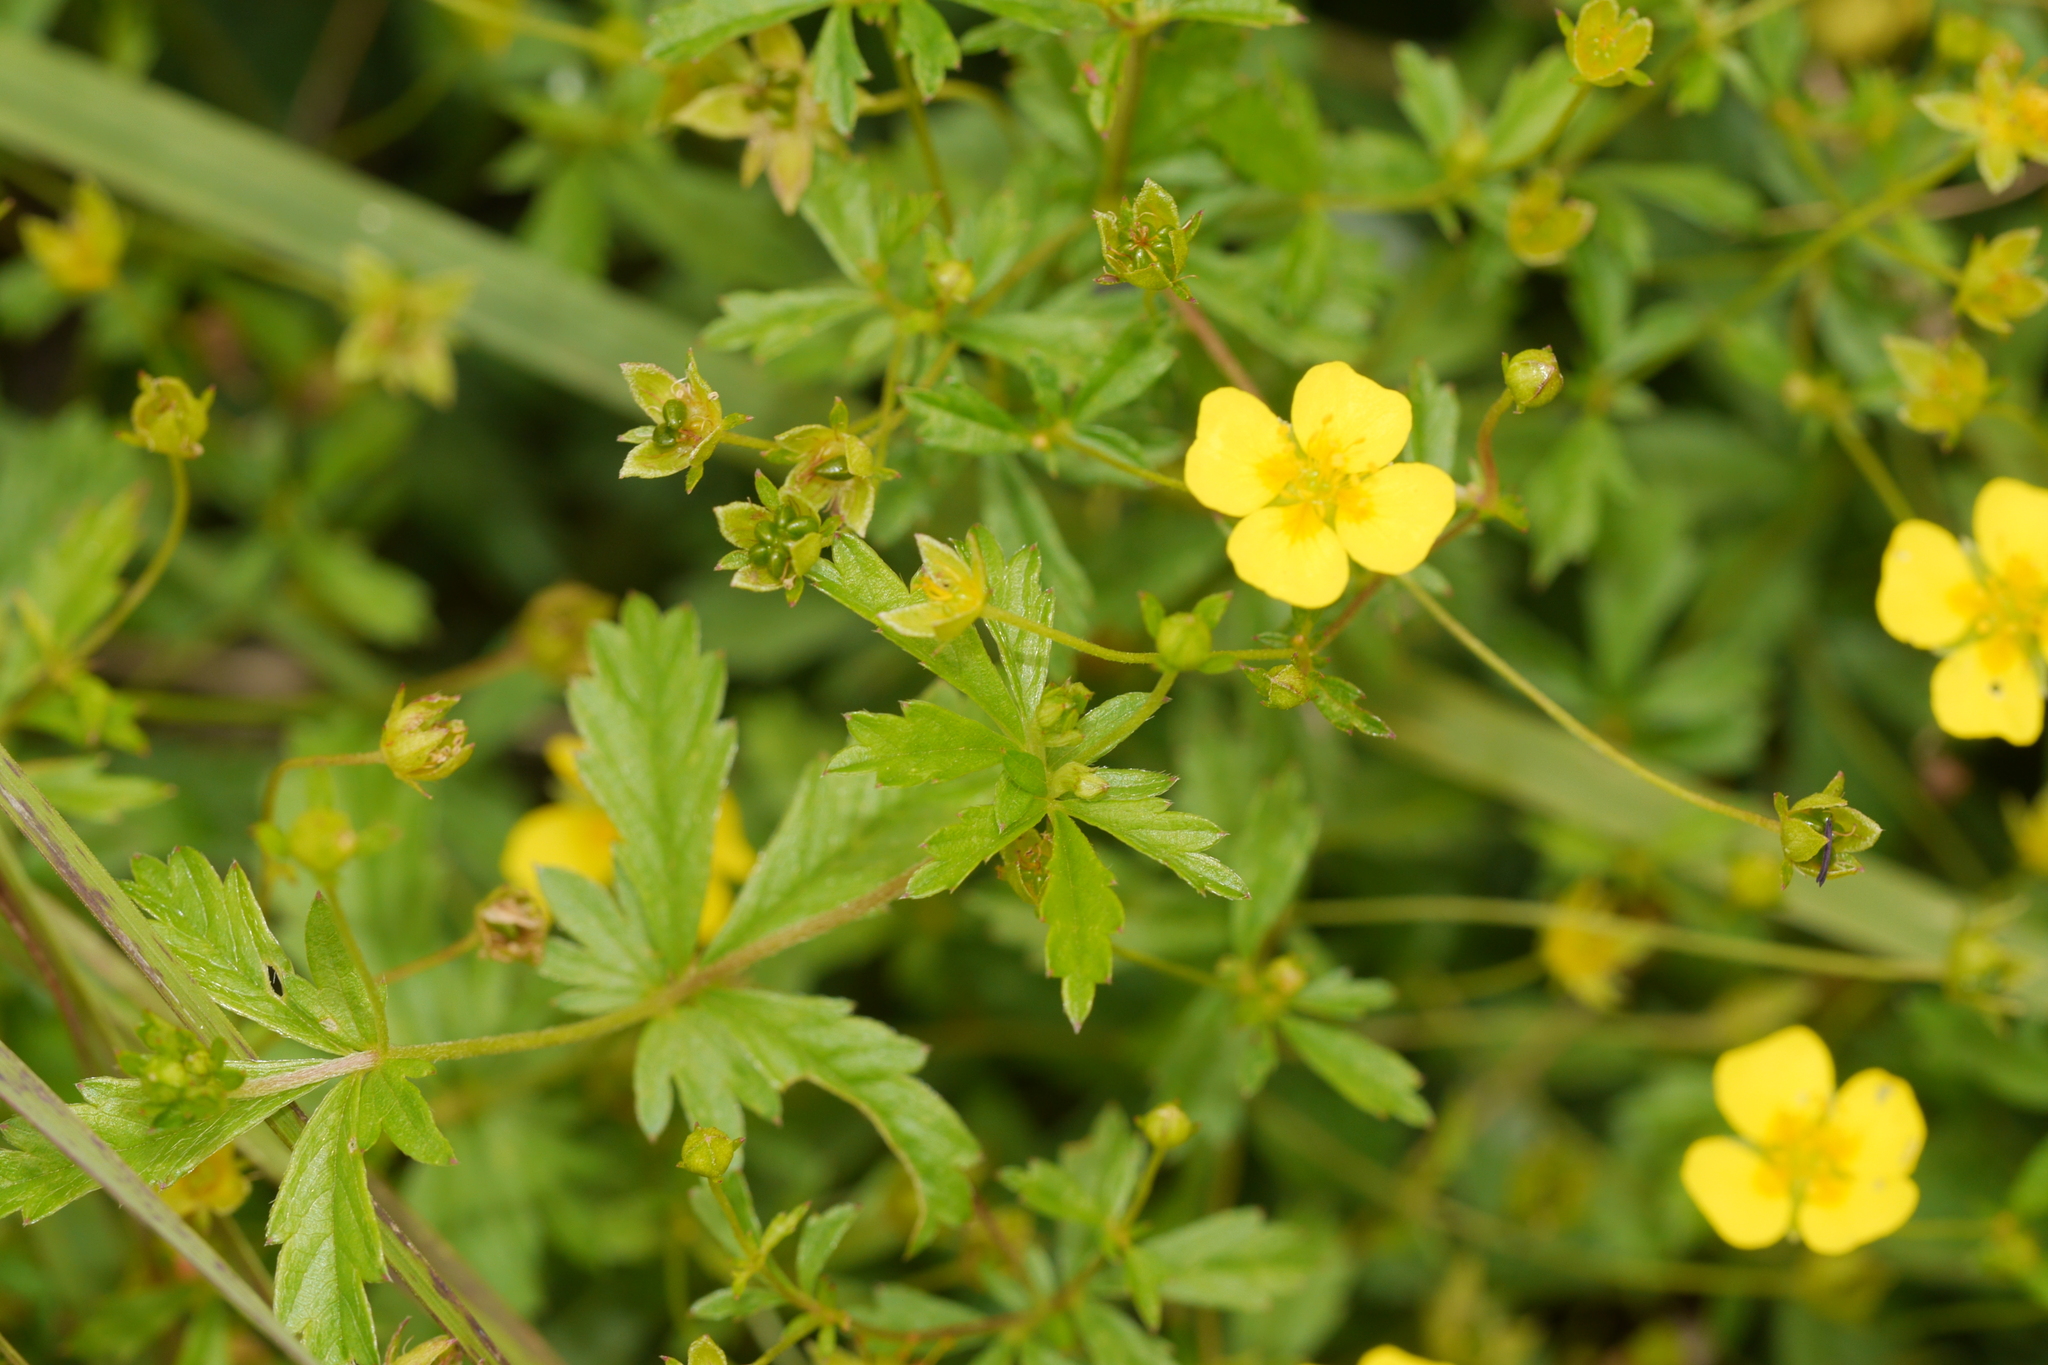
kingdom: Plantae
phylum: Tracheophyta
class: Magnoliopsida
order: Rosales
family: Rosaceae
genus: Potentilla
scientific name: Potentilla erecta
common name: Tormentil
